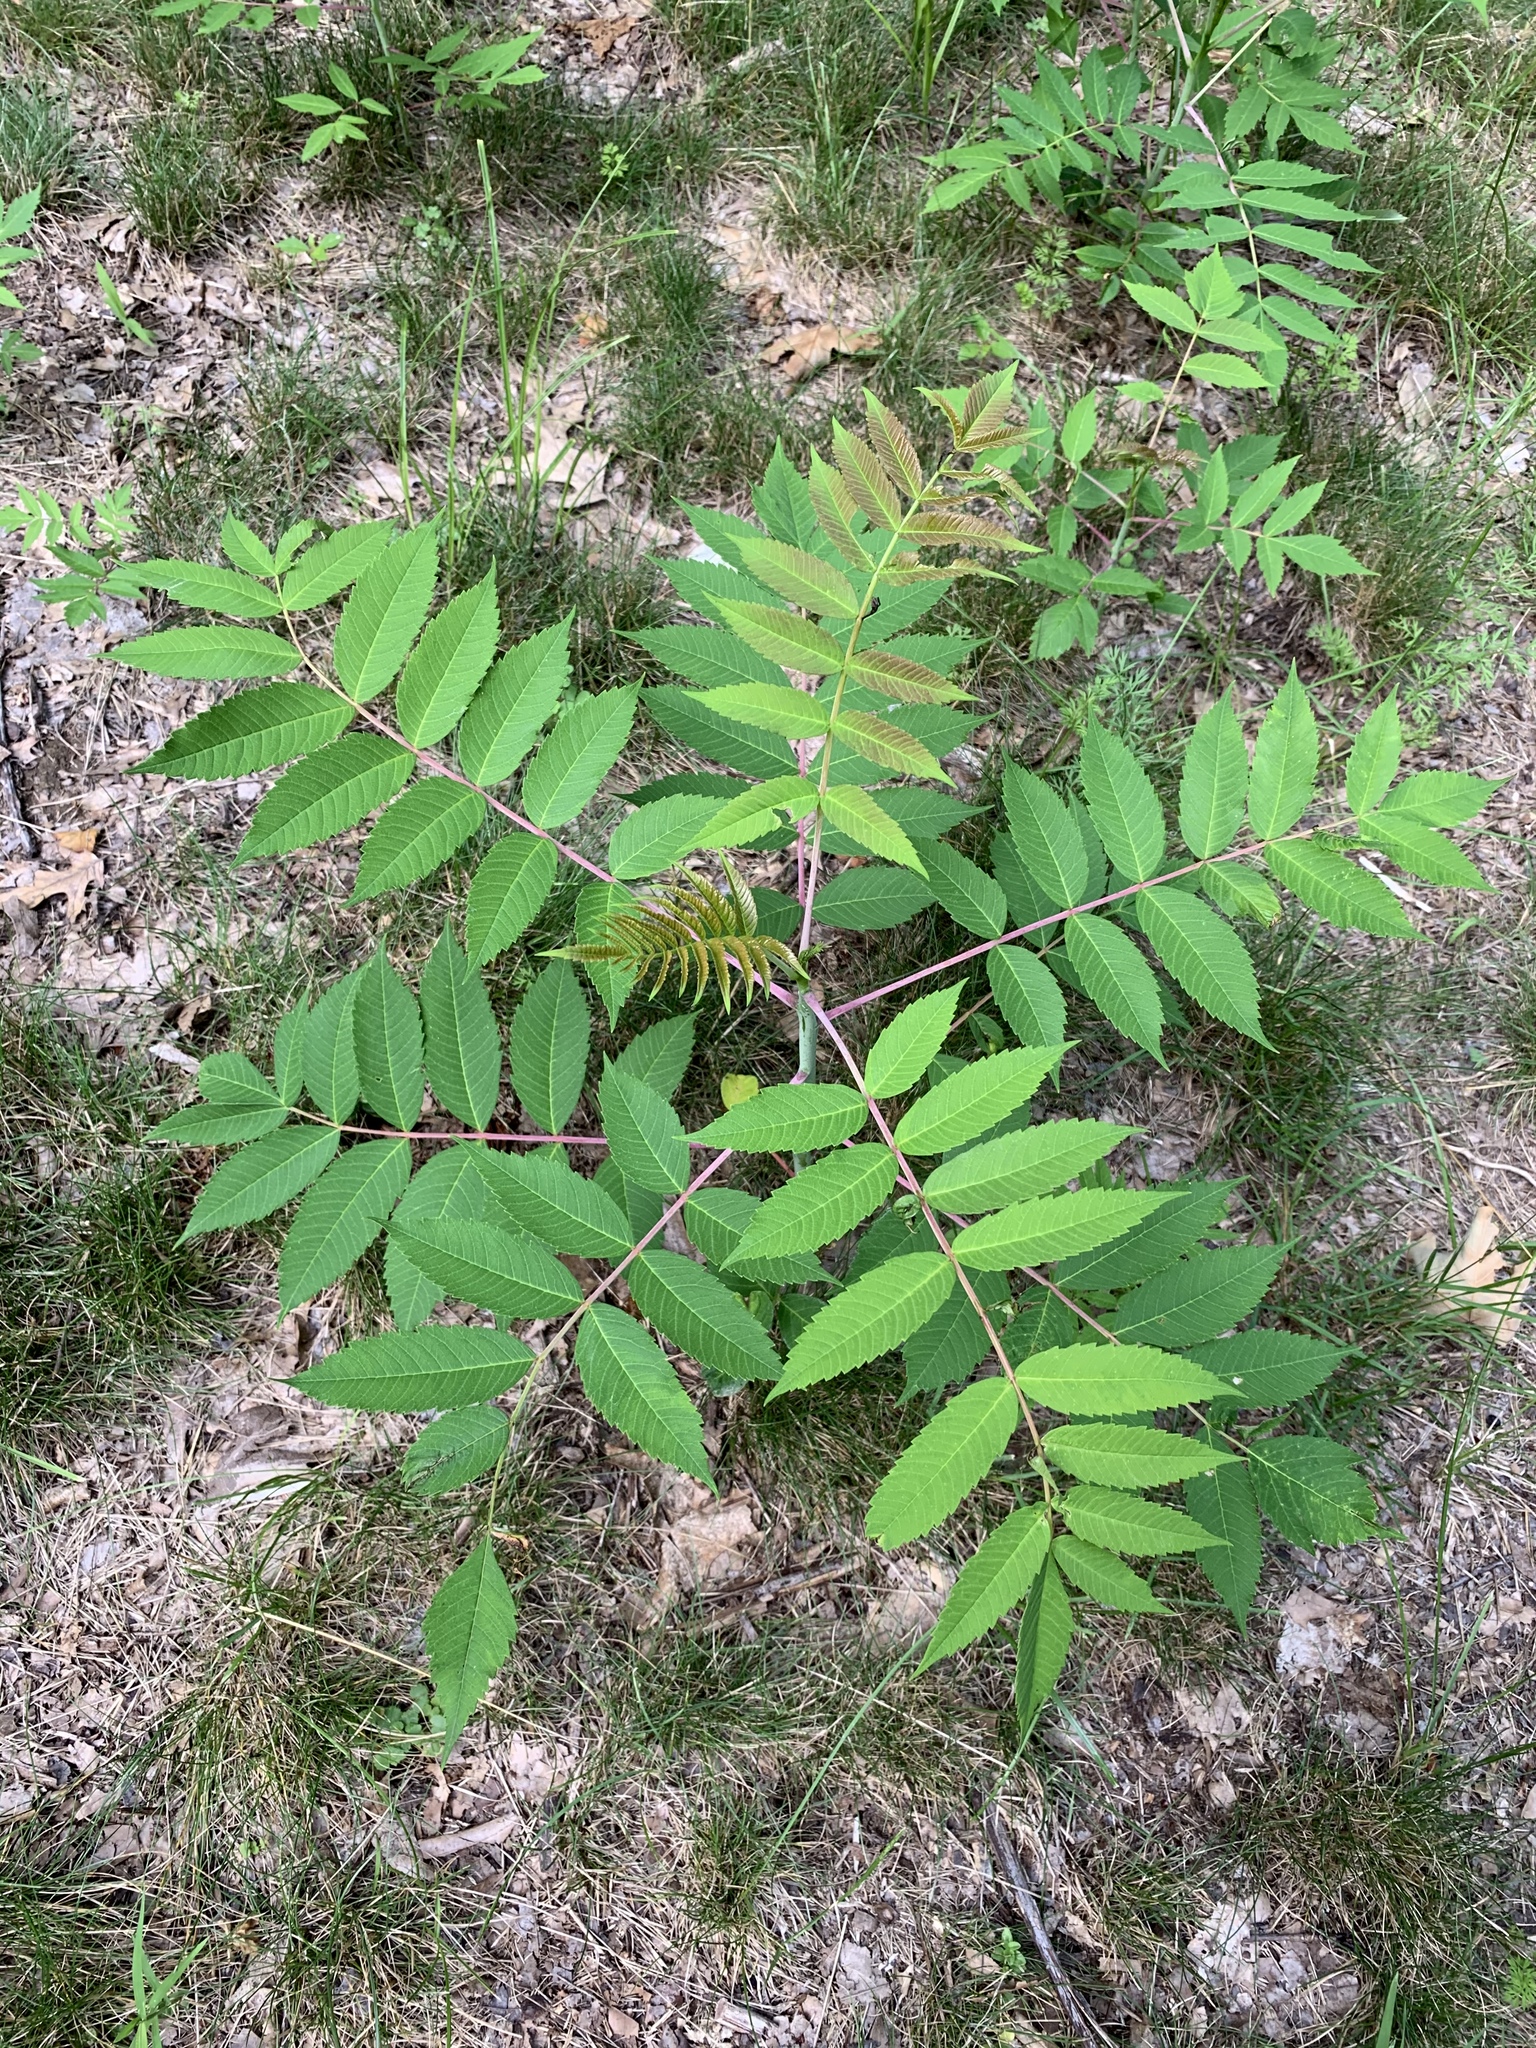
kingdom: Plantae
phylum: Tracheophyta
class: Magnoliopsida
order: Sapindales
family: Anacardiaceae
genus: Rhus
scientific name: Rhus glabra
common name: Scarlet sumac
